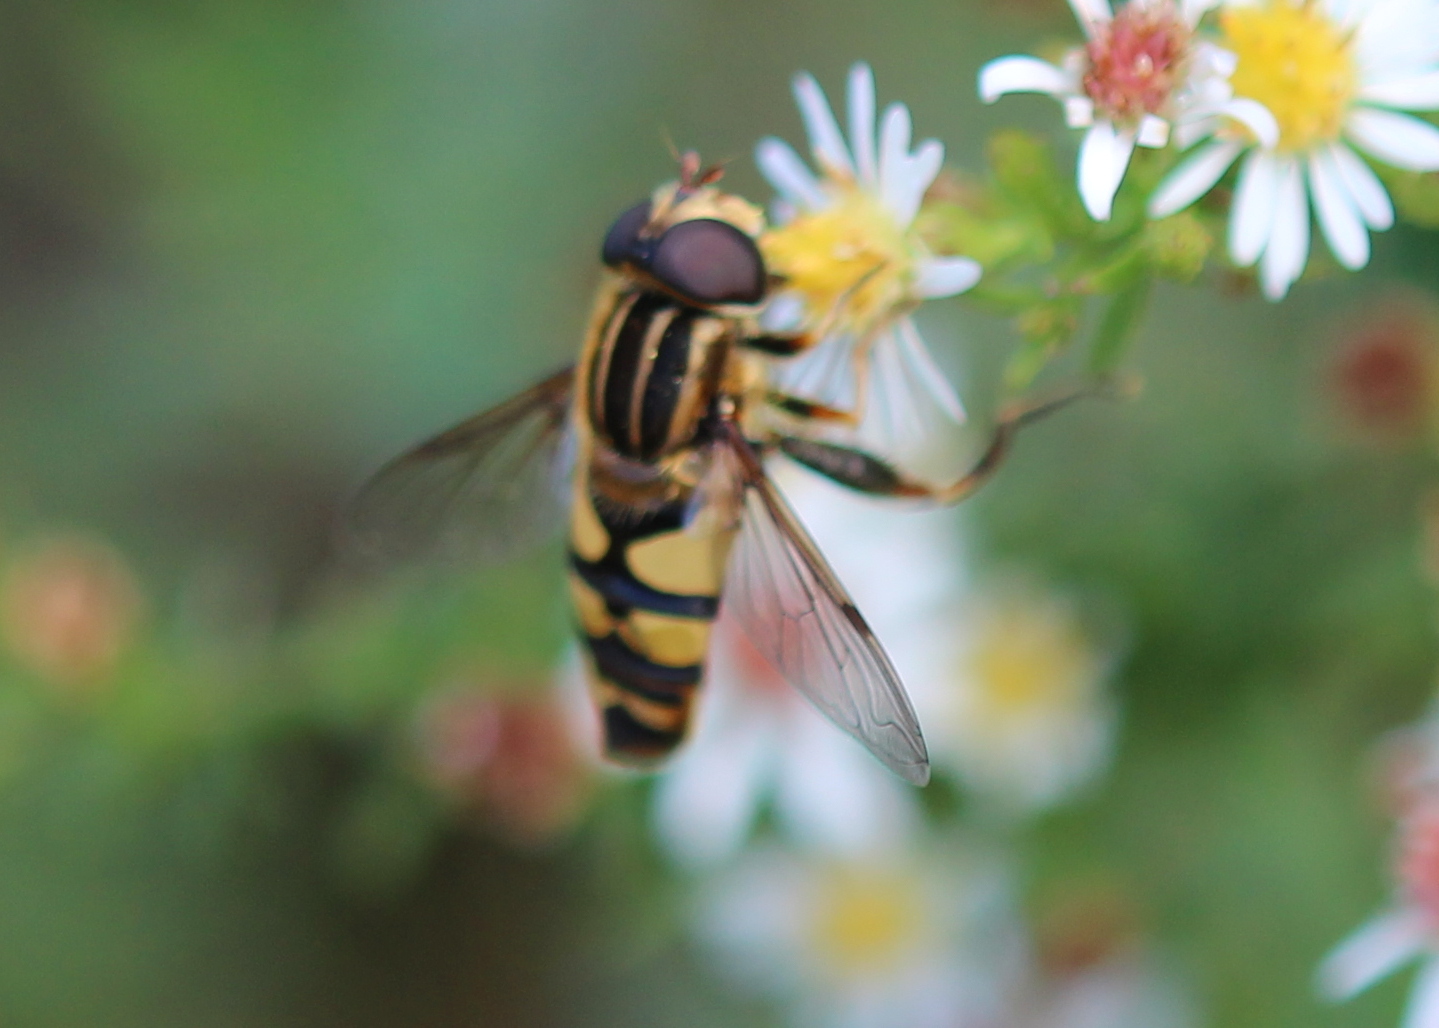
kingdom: Animalia
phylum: Arthropoda
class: Insecta
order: Diptera
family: Syrphidae
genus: Helophilus
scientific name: Helophilus fasciatus
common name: Narrow-headed marsh fly
